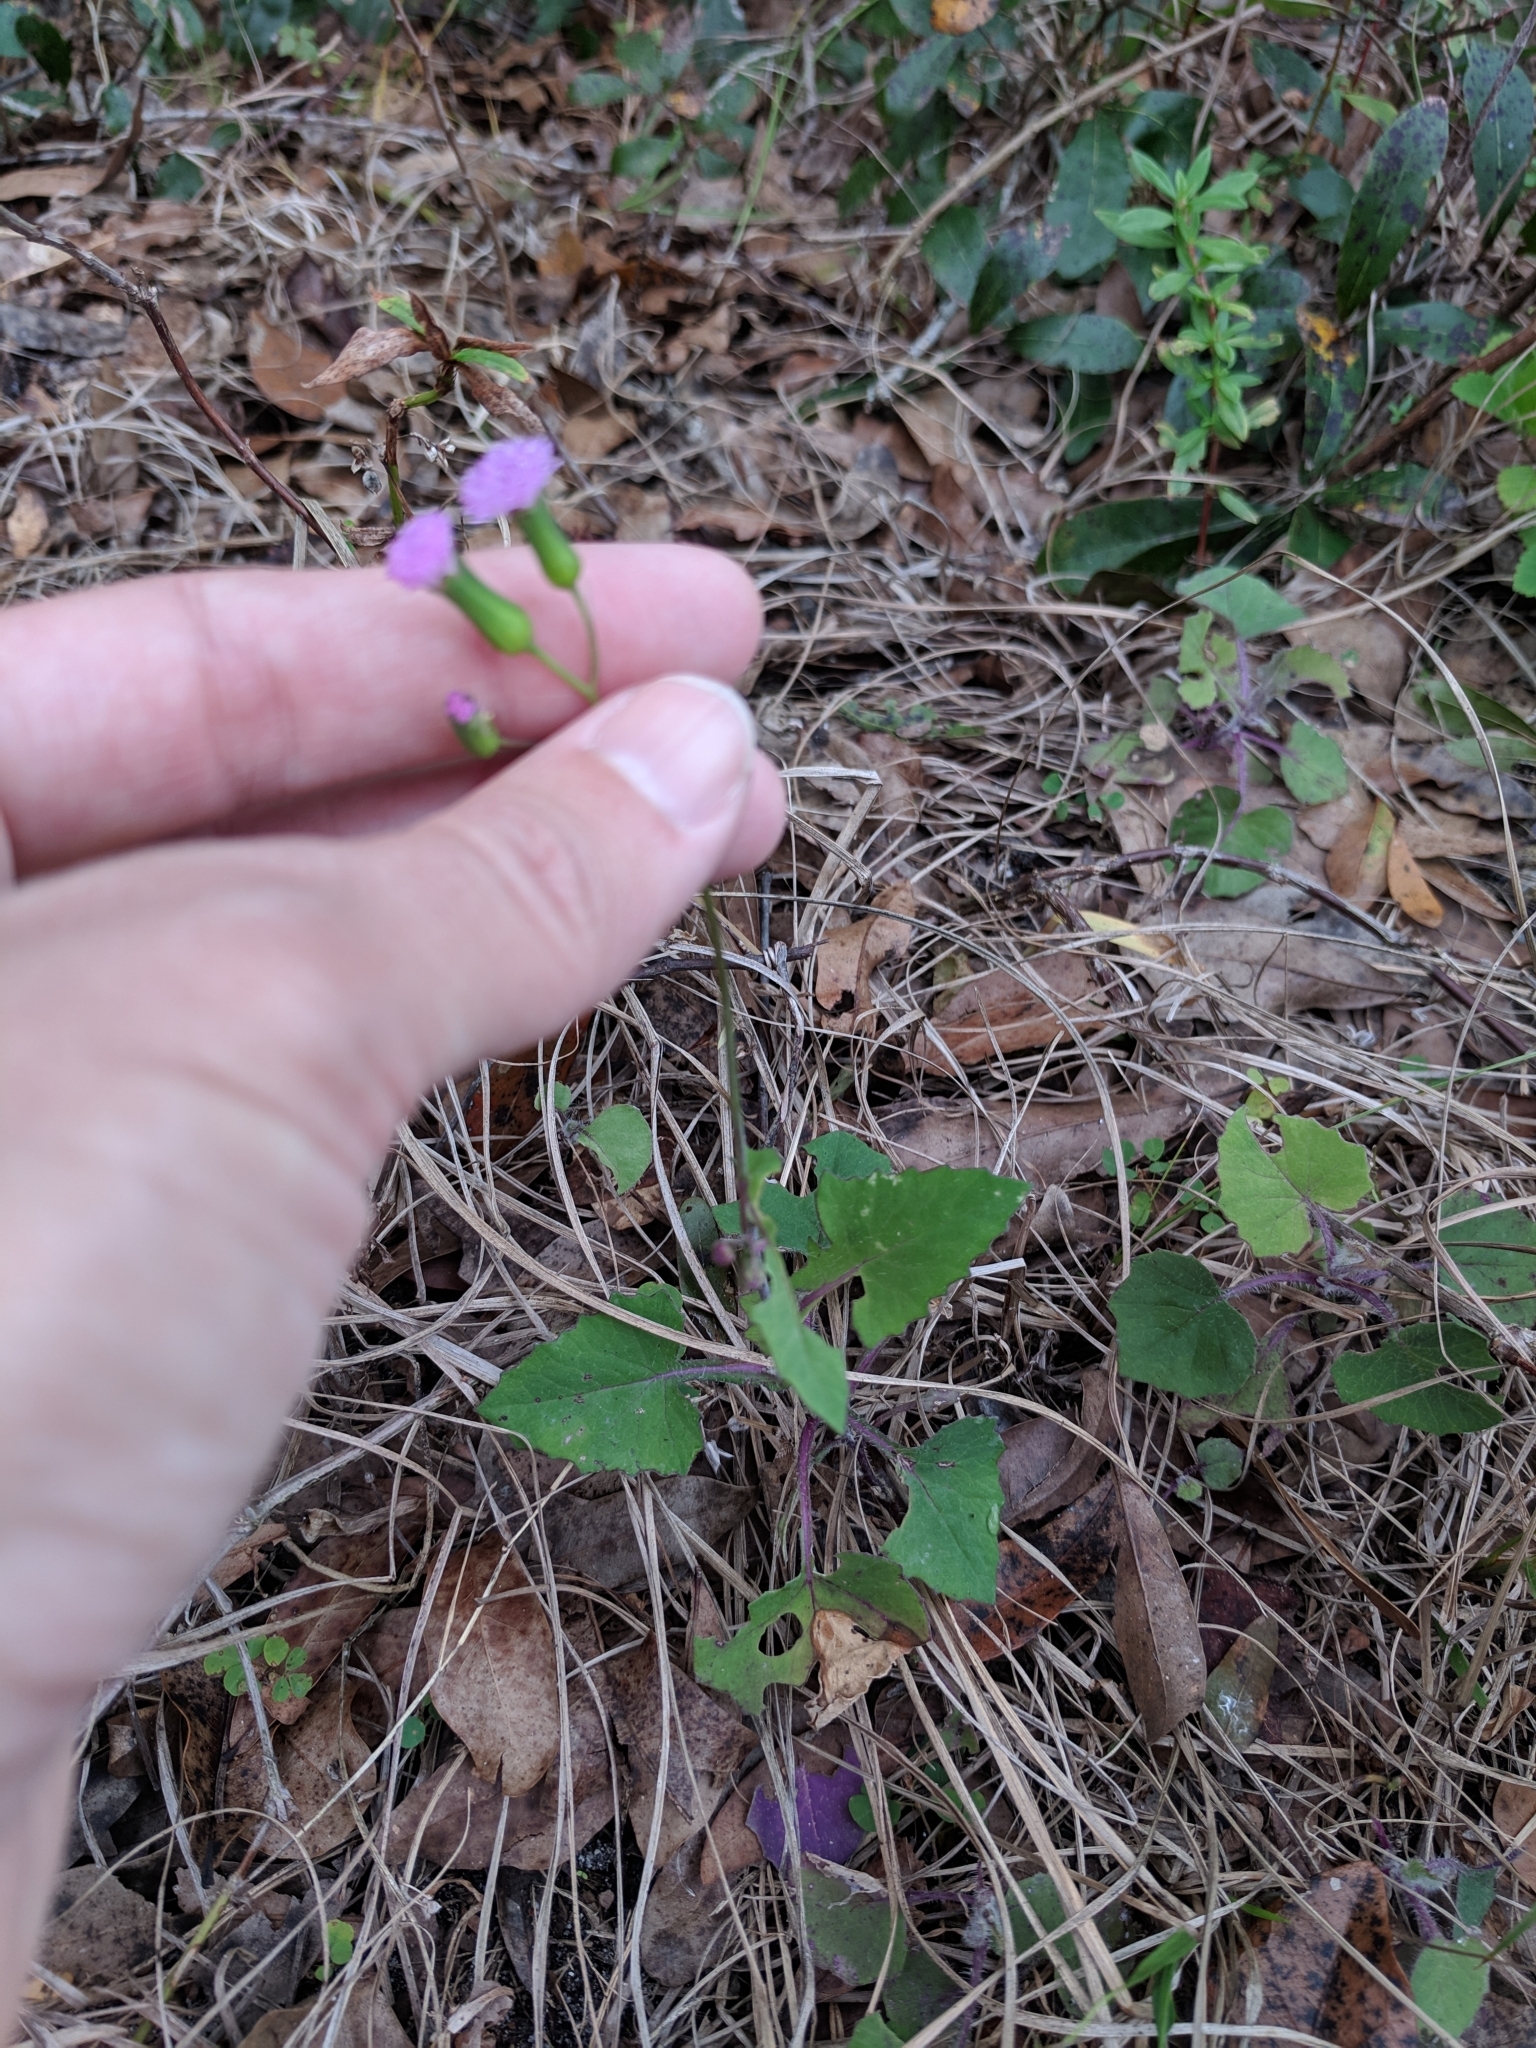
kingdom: Plantae
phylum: Tracheophyta
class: Magnoliopsida
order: Asterales
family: Asteraceae
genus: Emilia
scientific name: Emilia sonchifolia
